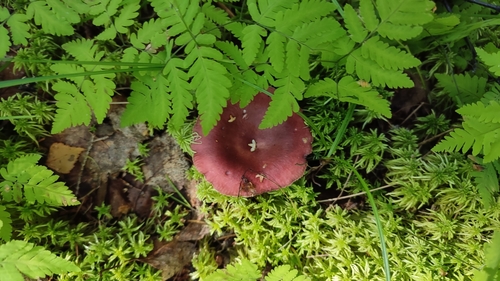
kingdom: Fungi
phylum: Basidiomycota
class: Agaricomycetes
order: Russulales
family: Russulaceae
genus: Russula
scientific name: Russula
